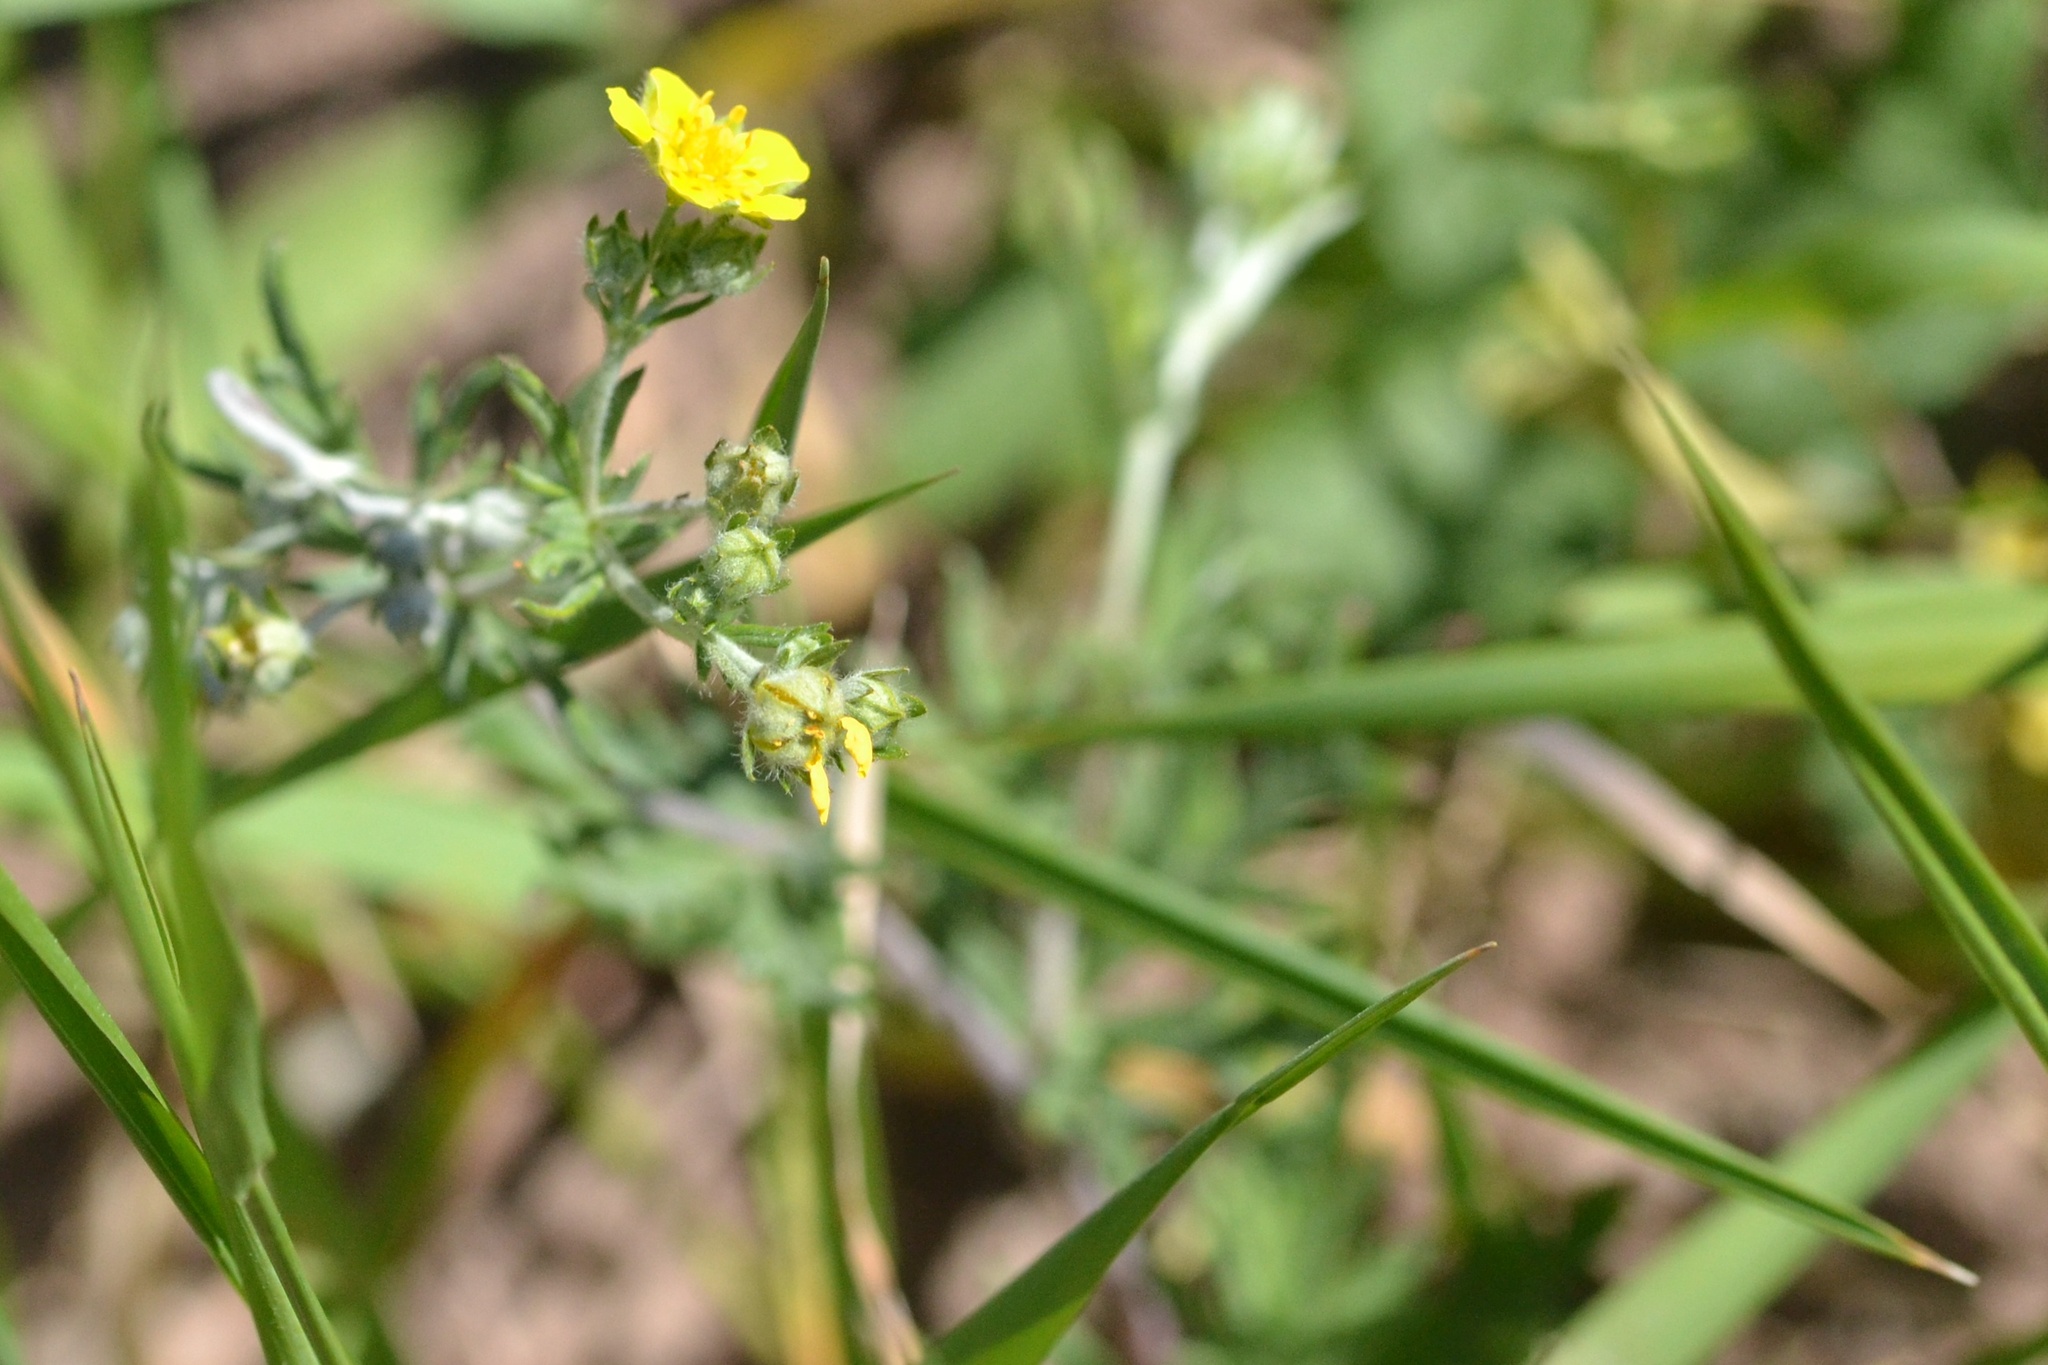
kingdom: Plantae
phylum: Tracheophyta
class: Magnoliopsida
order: Rosales
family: Rosaceae
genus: Potentilla
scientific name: Potentilla argentea
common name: Hoary cinquefoil
